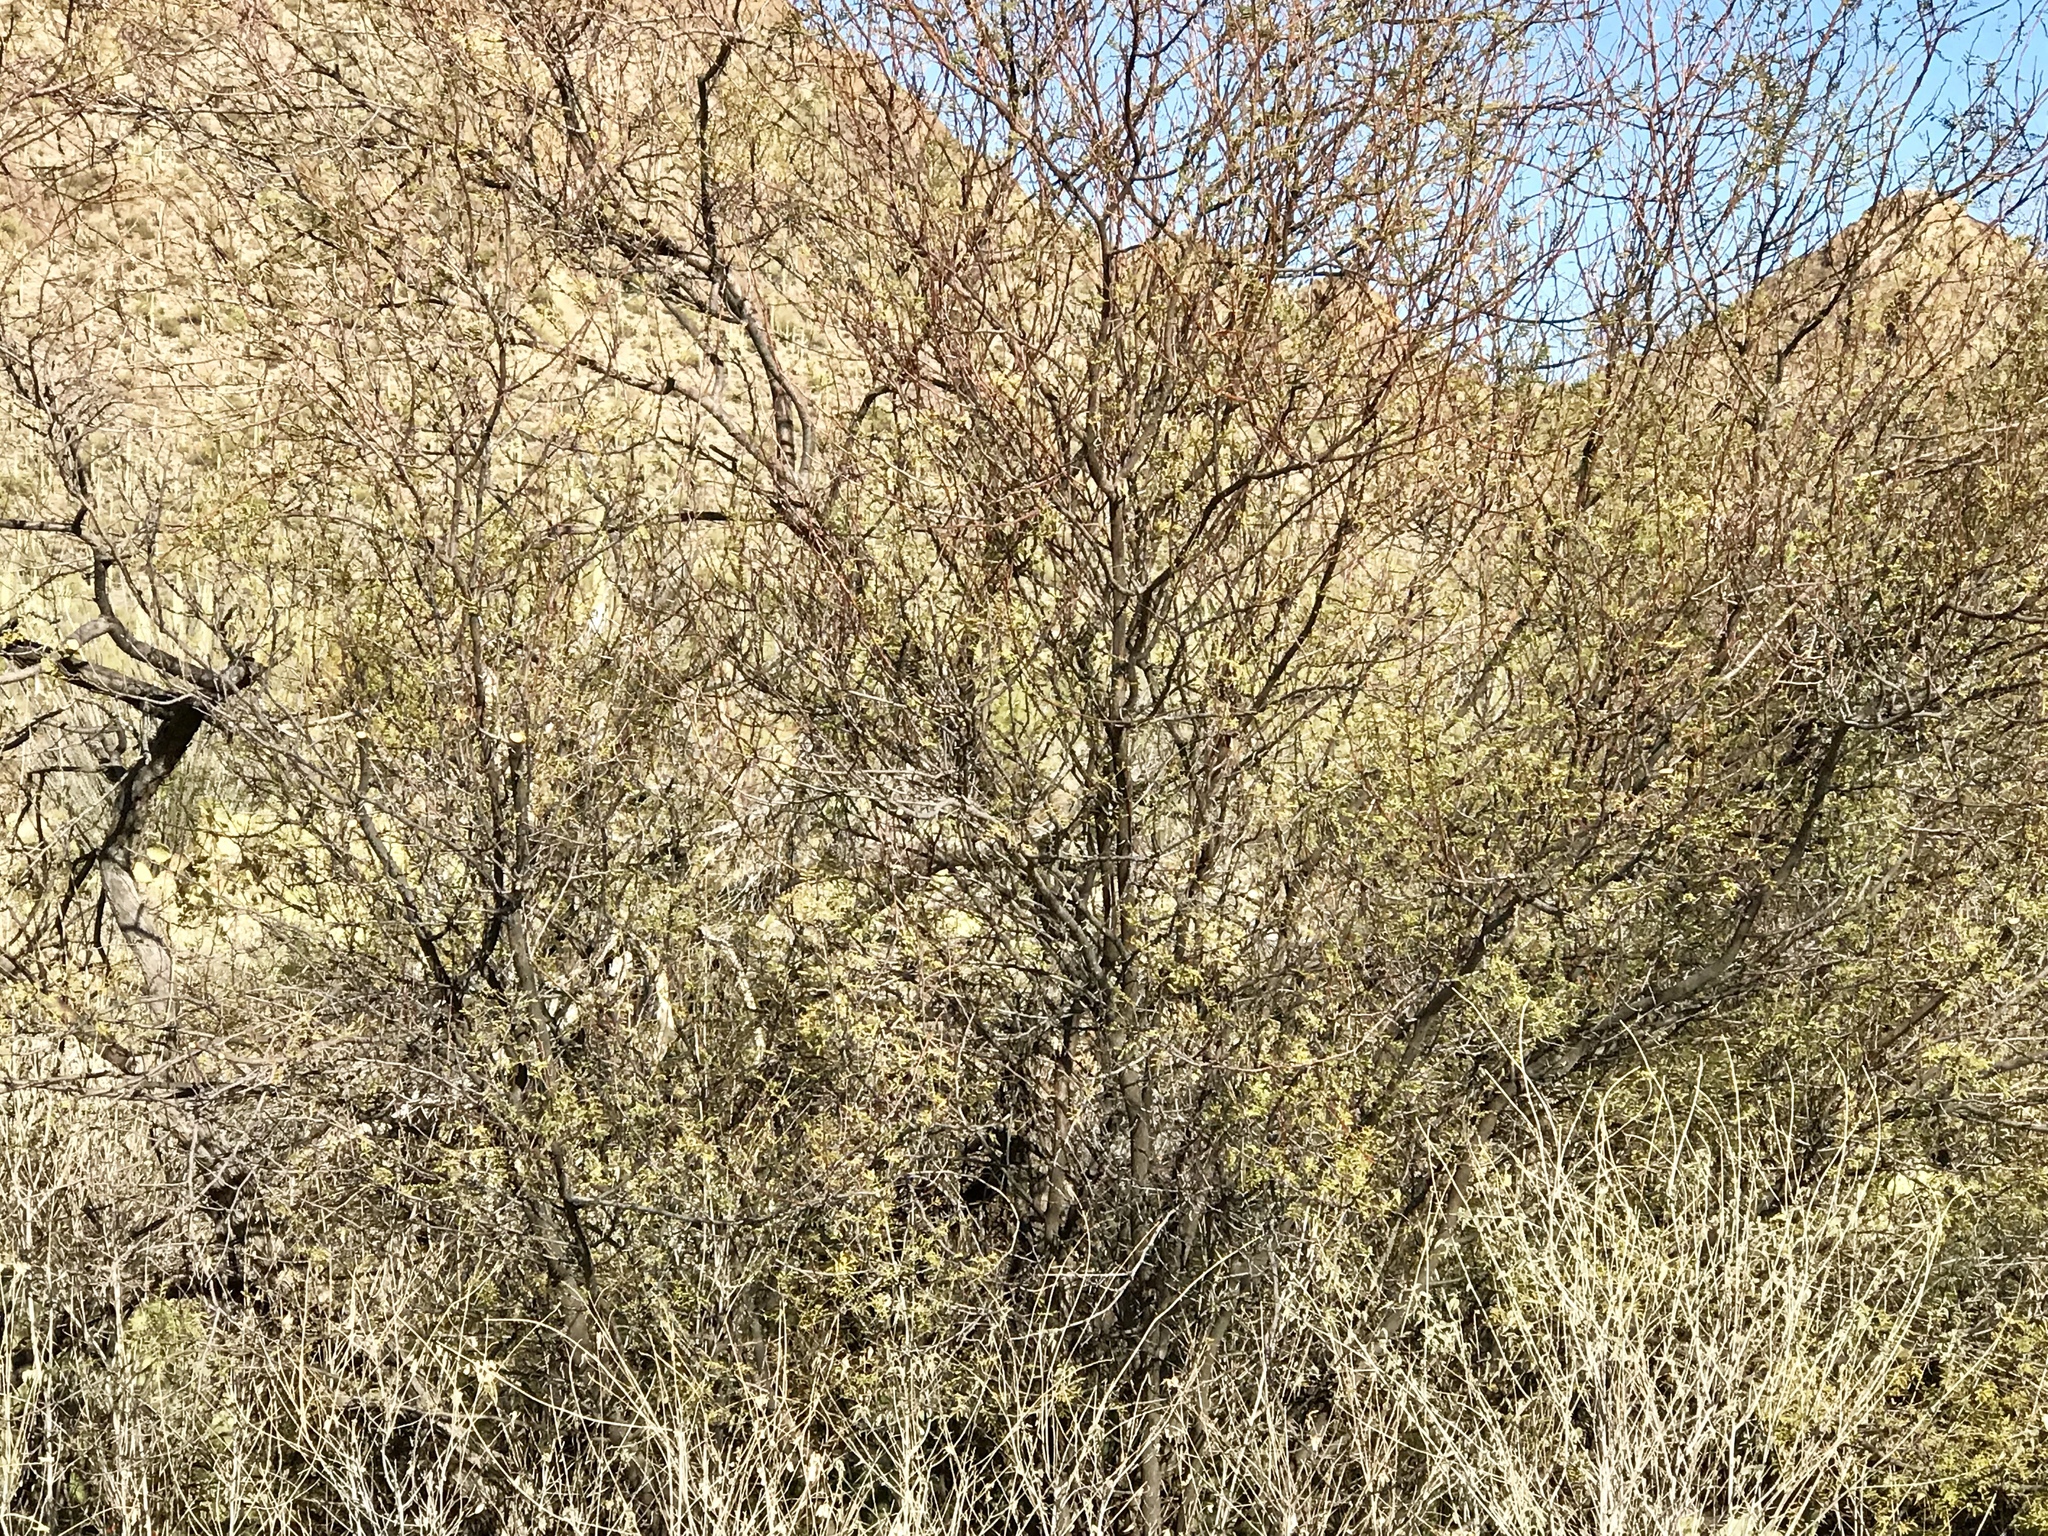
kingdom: Plantae
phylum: Tracheophyta
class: Magnoliopsida
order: Fabales
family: Fabaceae
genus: Vachellia
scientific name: Vachellia constricta
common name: Mescat acacia
